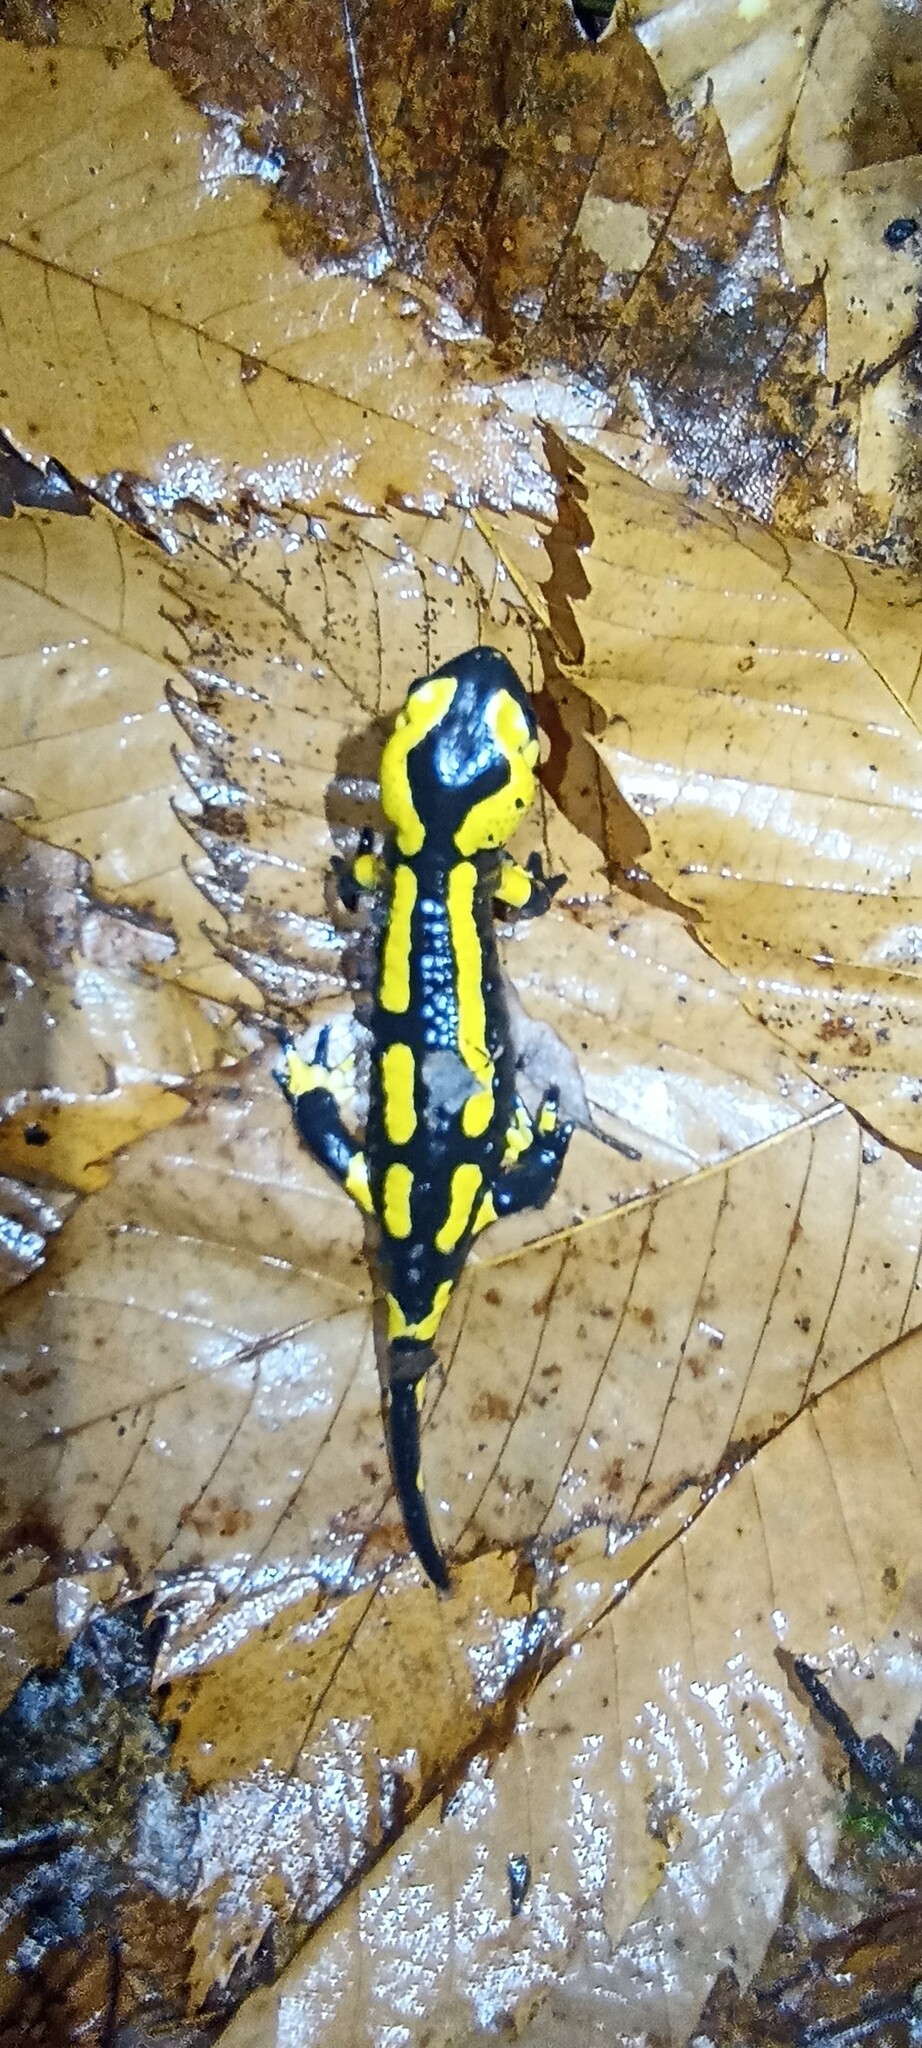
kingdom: Animalia
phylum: Chordata
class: Amphibia
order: Caudata
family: Salamandridae
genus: Salamandra
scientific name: Salamandra salamandra
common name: Fire salamander
